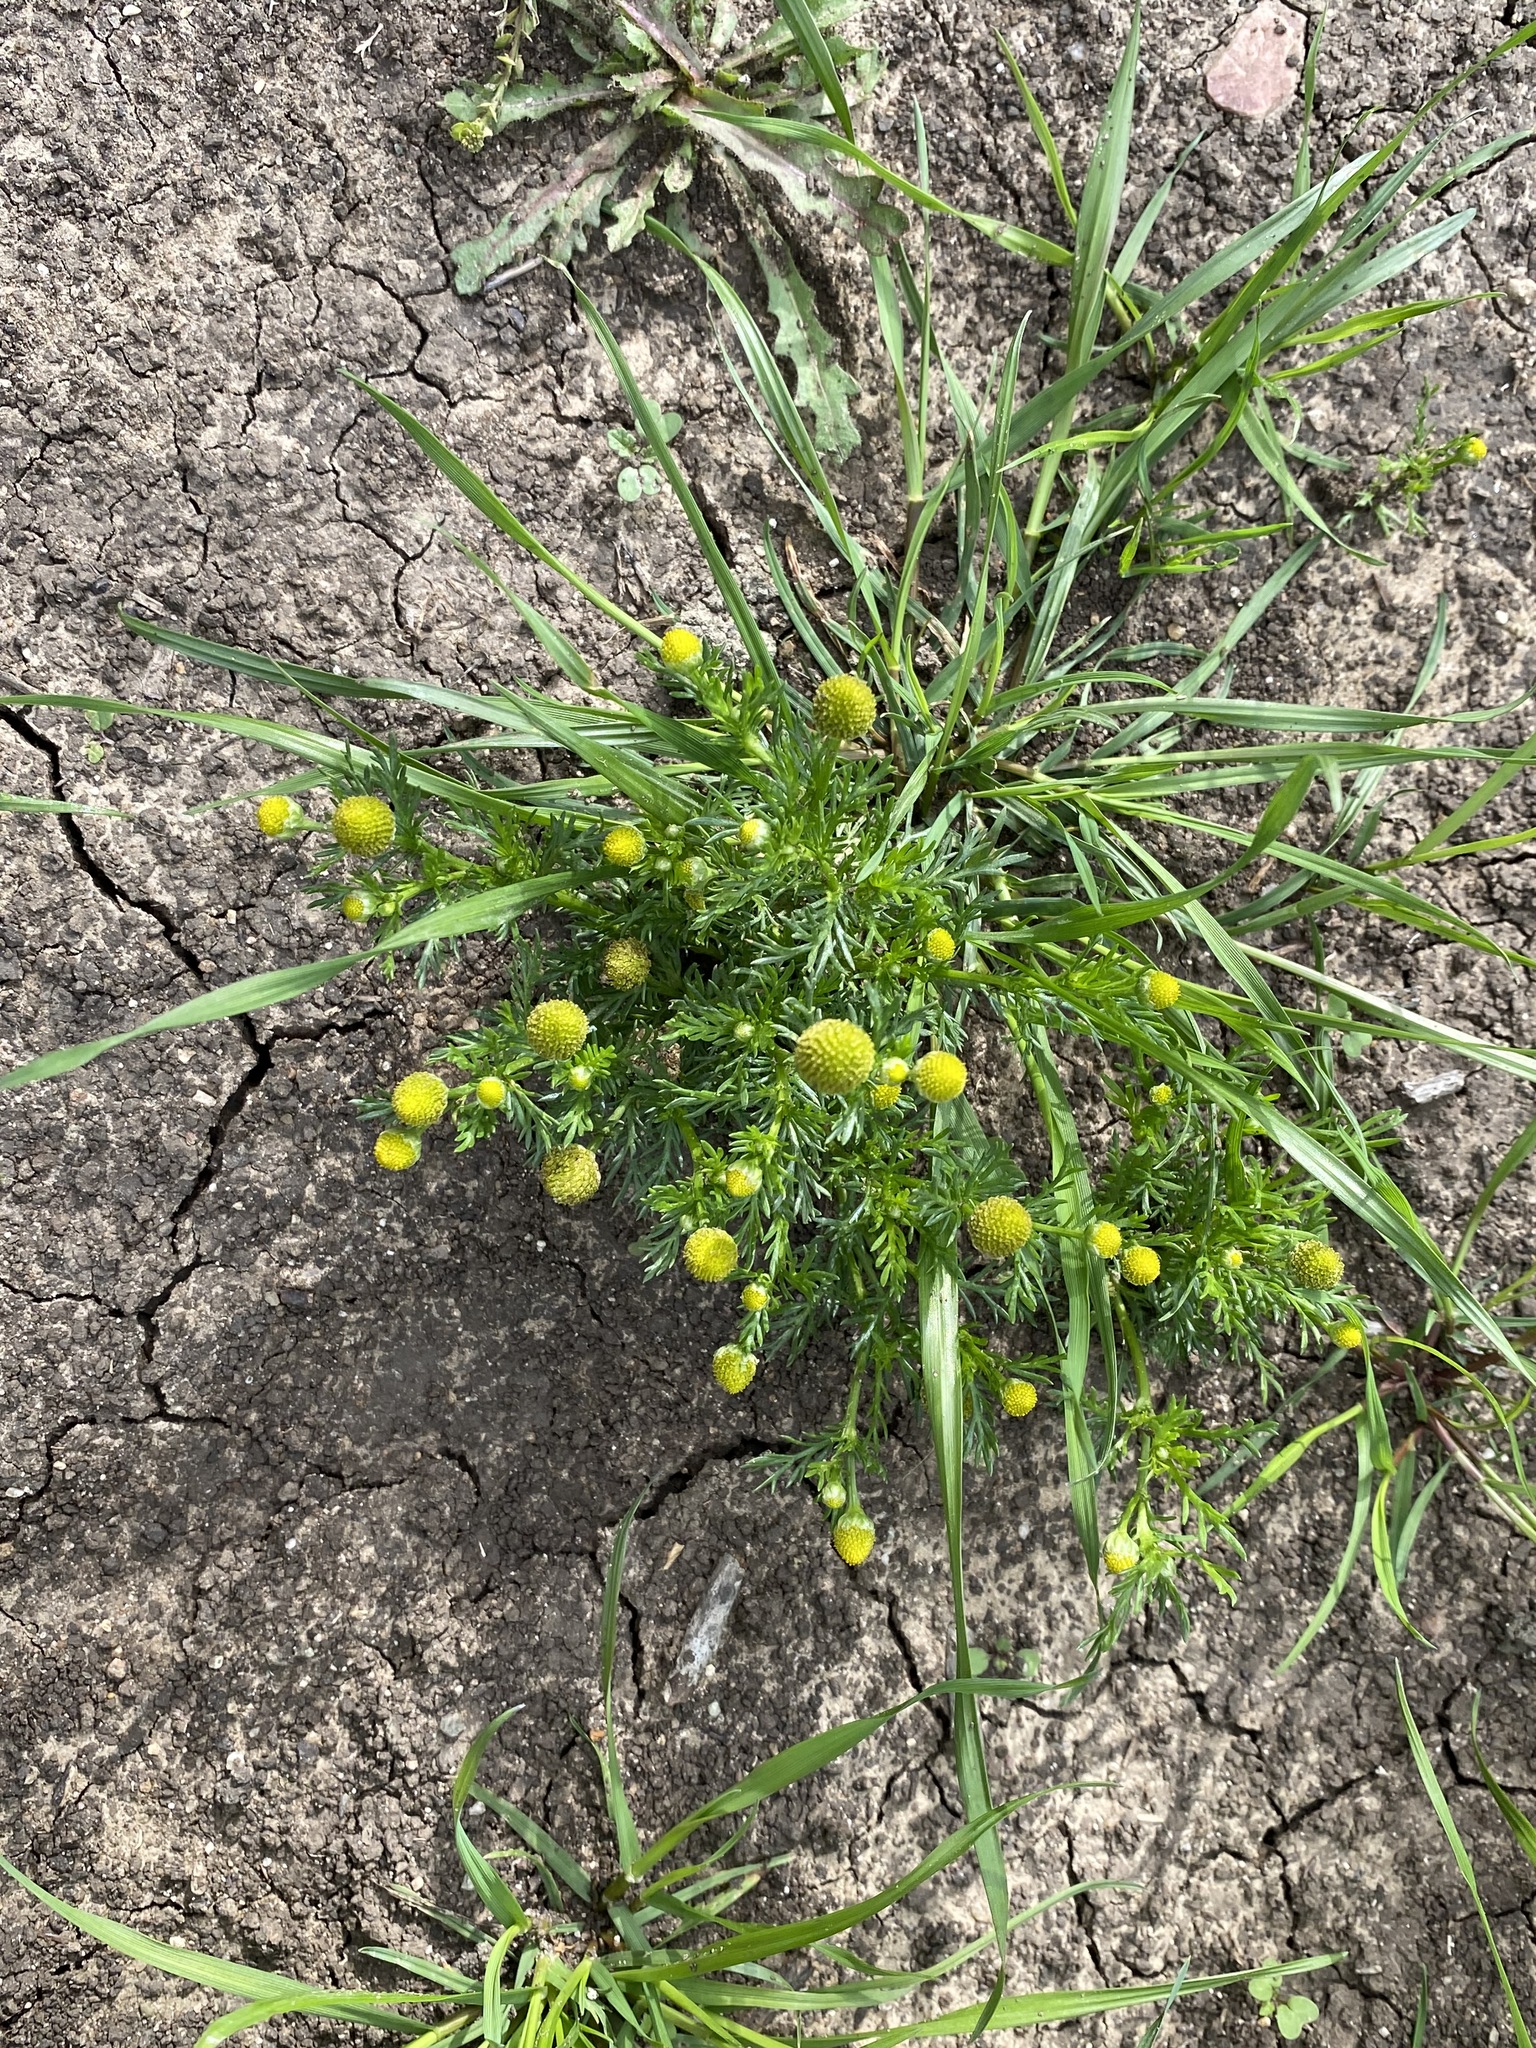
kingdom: Plantae
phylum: Tracheophyta
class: Magnoliopsida
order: Asterales
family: Asteraceae
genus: Matricaria
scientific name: Matricaria discoidea
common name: Disc mayweed
